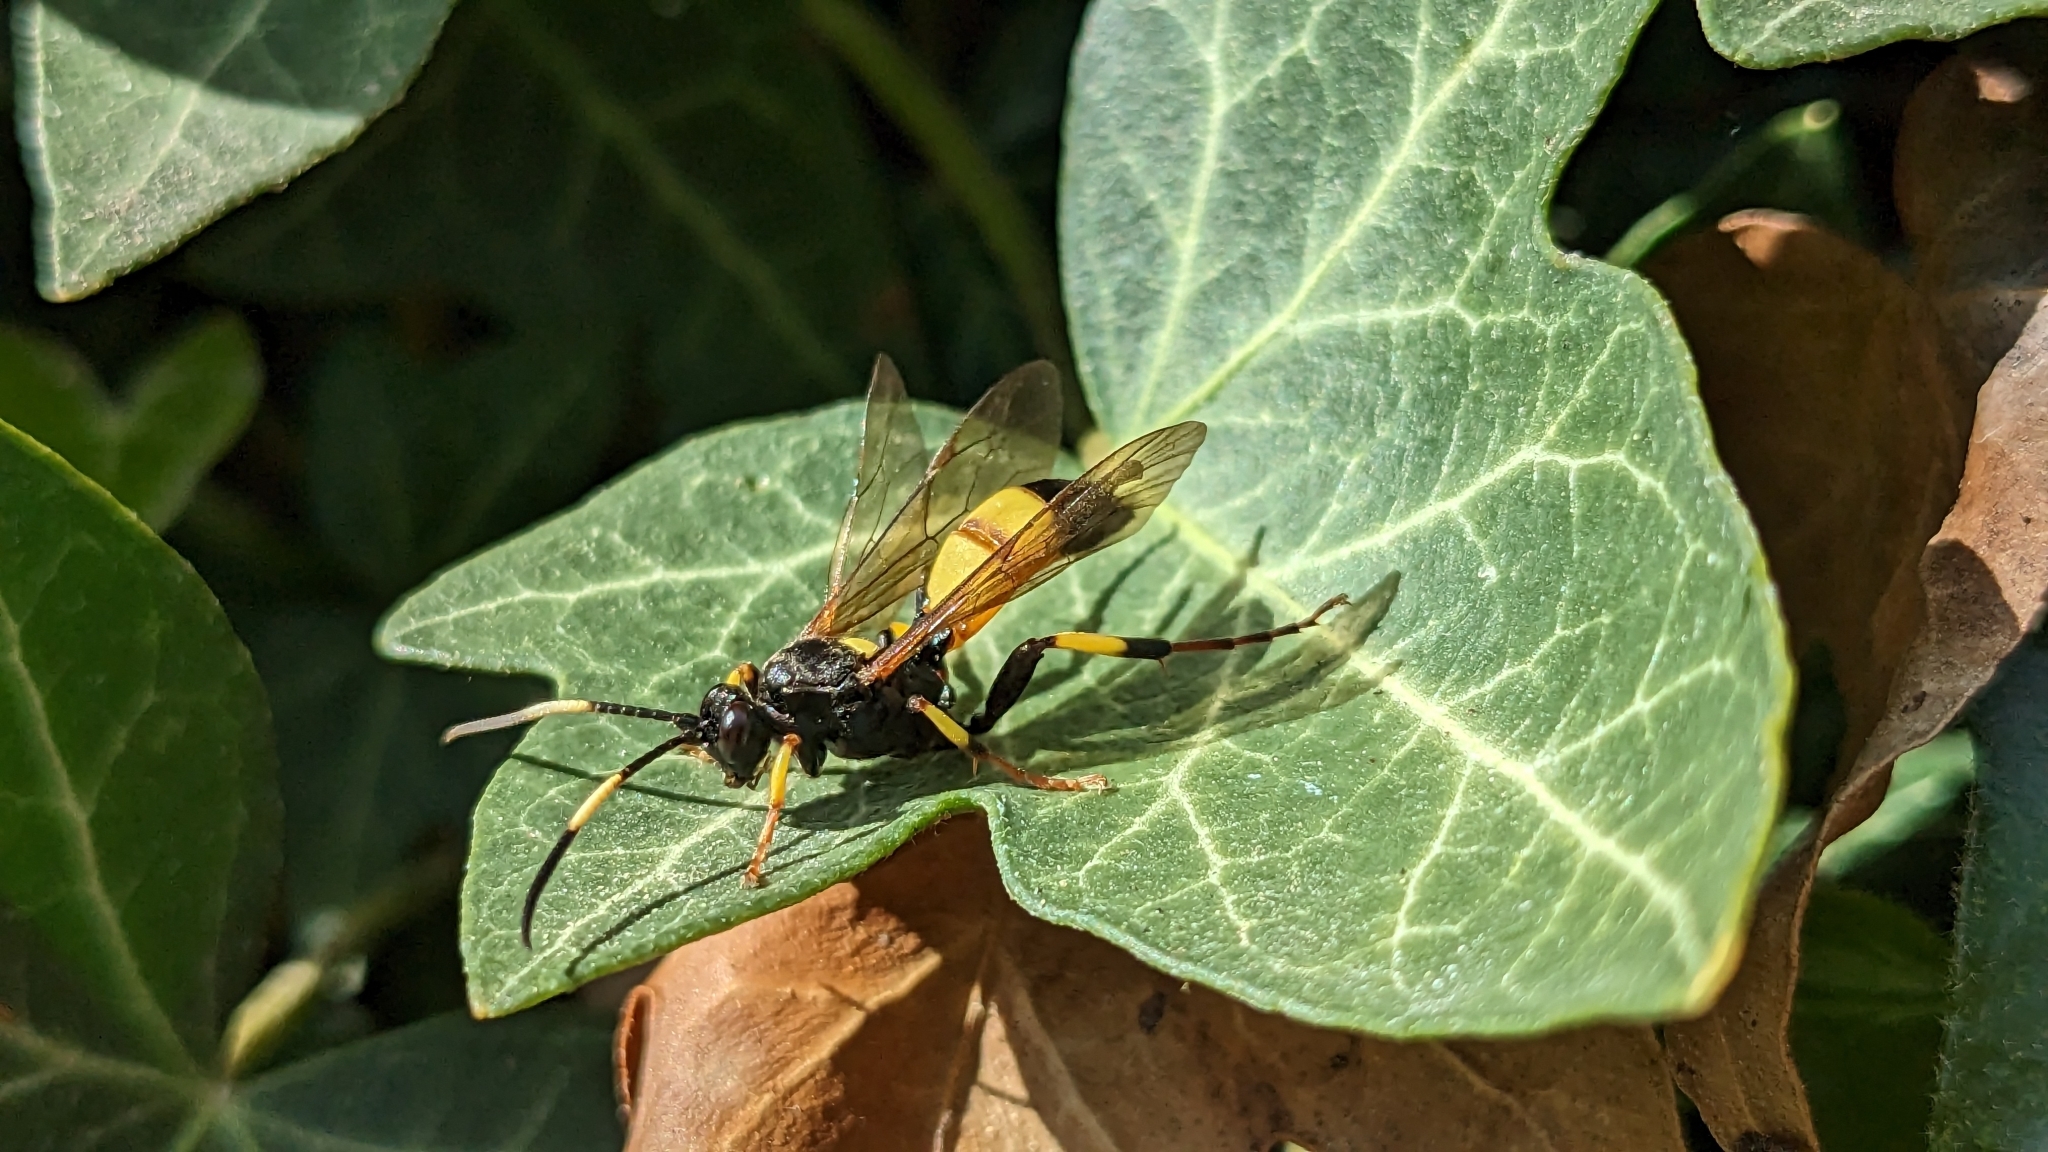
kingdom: Animalia
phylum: Arthropoda
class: Insecta
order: Hymenoptera
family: Ichneumonidae
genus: Ichneumon
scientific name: Ichneumon stramentor
